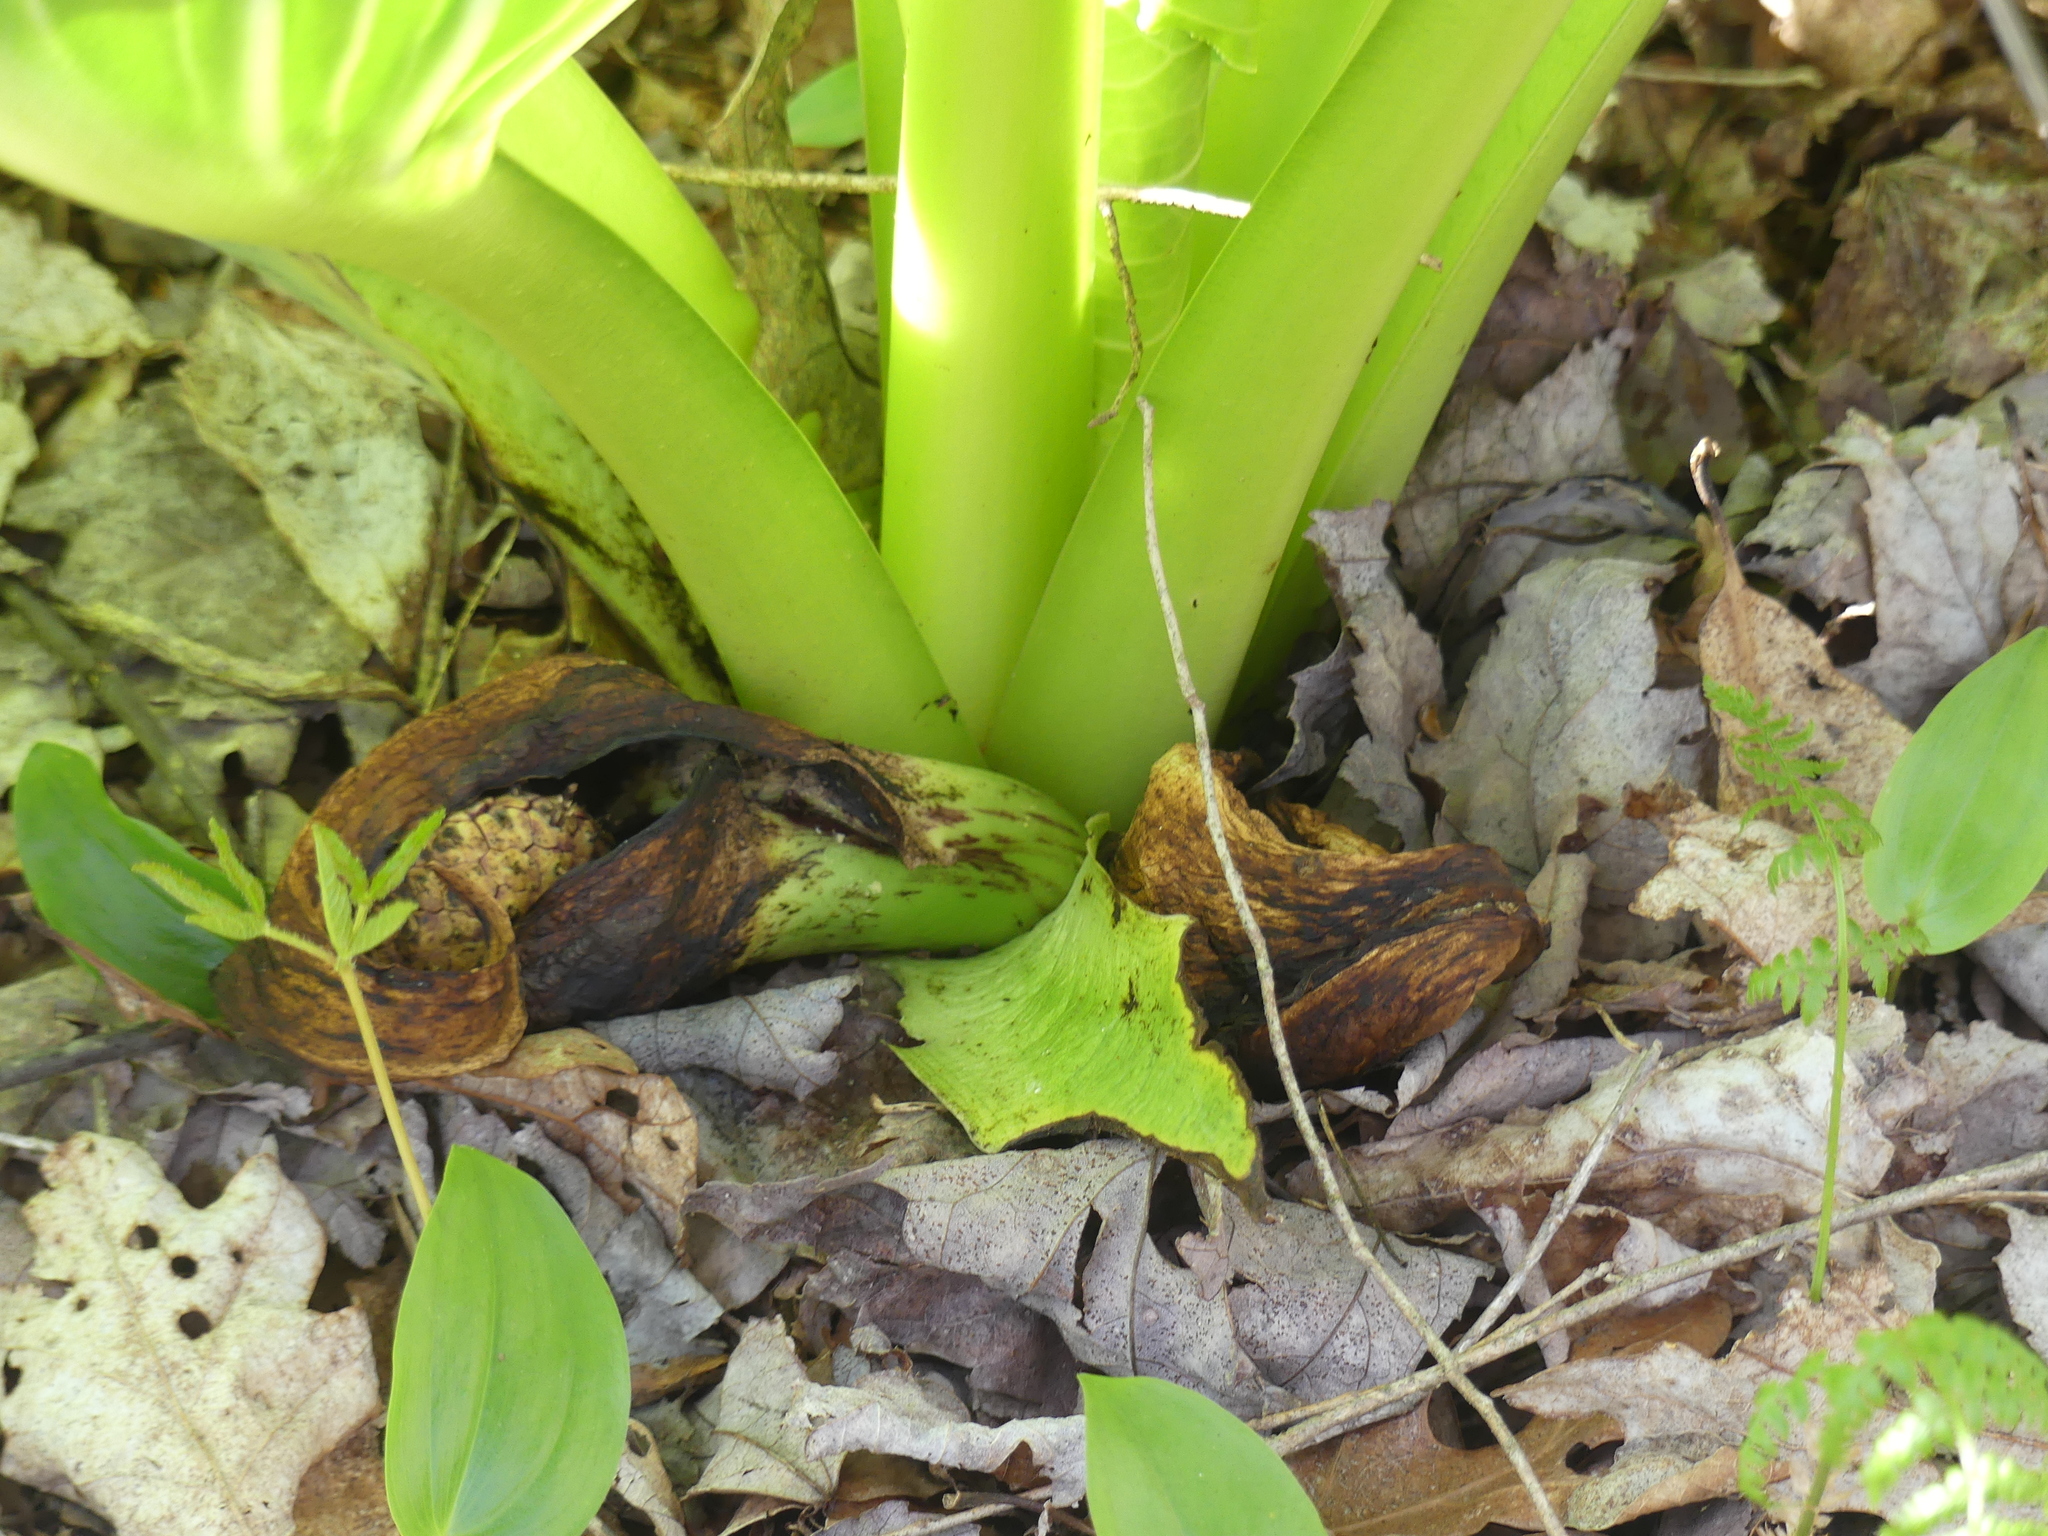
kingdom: Plantae
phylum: Tracheophyta
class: Liliopsida
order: Alismatales
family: Araceae
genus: Symplocarpus
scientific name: Symplocarpus foetidus
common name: Eastern skunk cabbage
